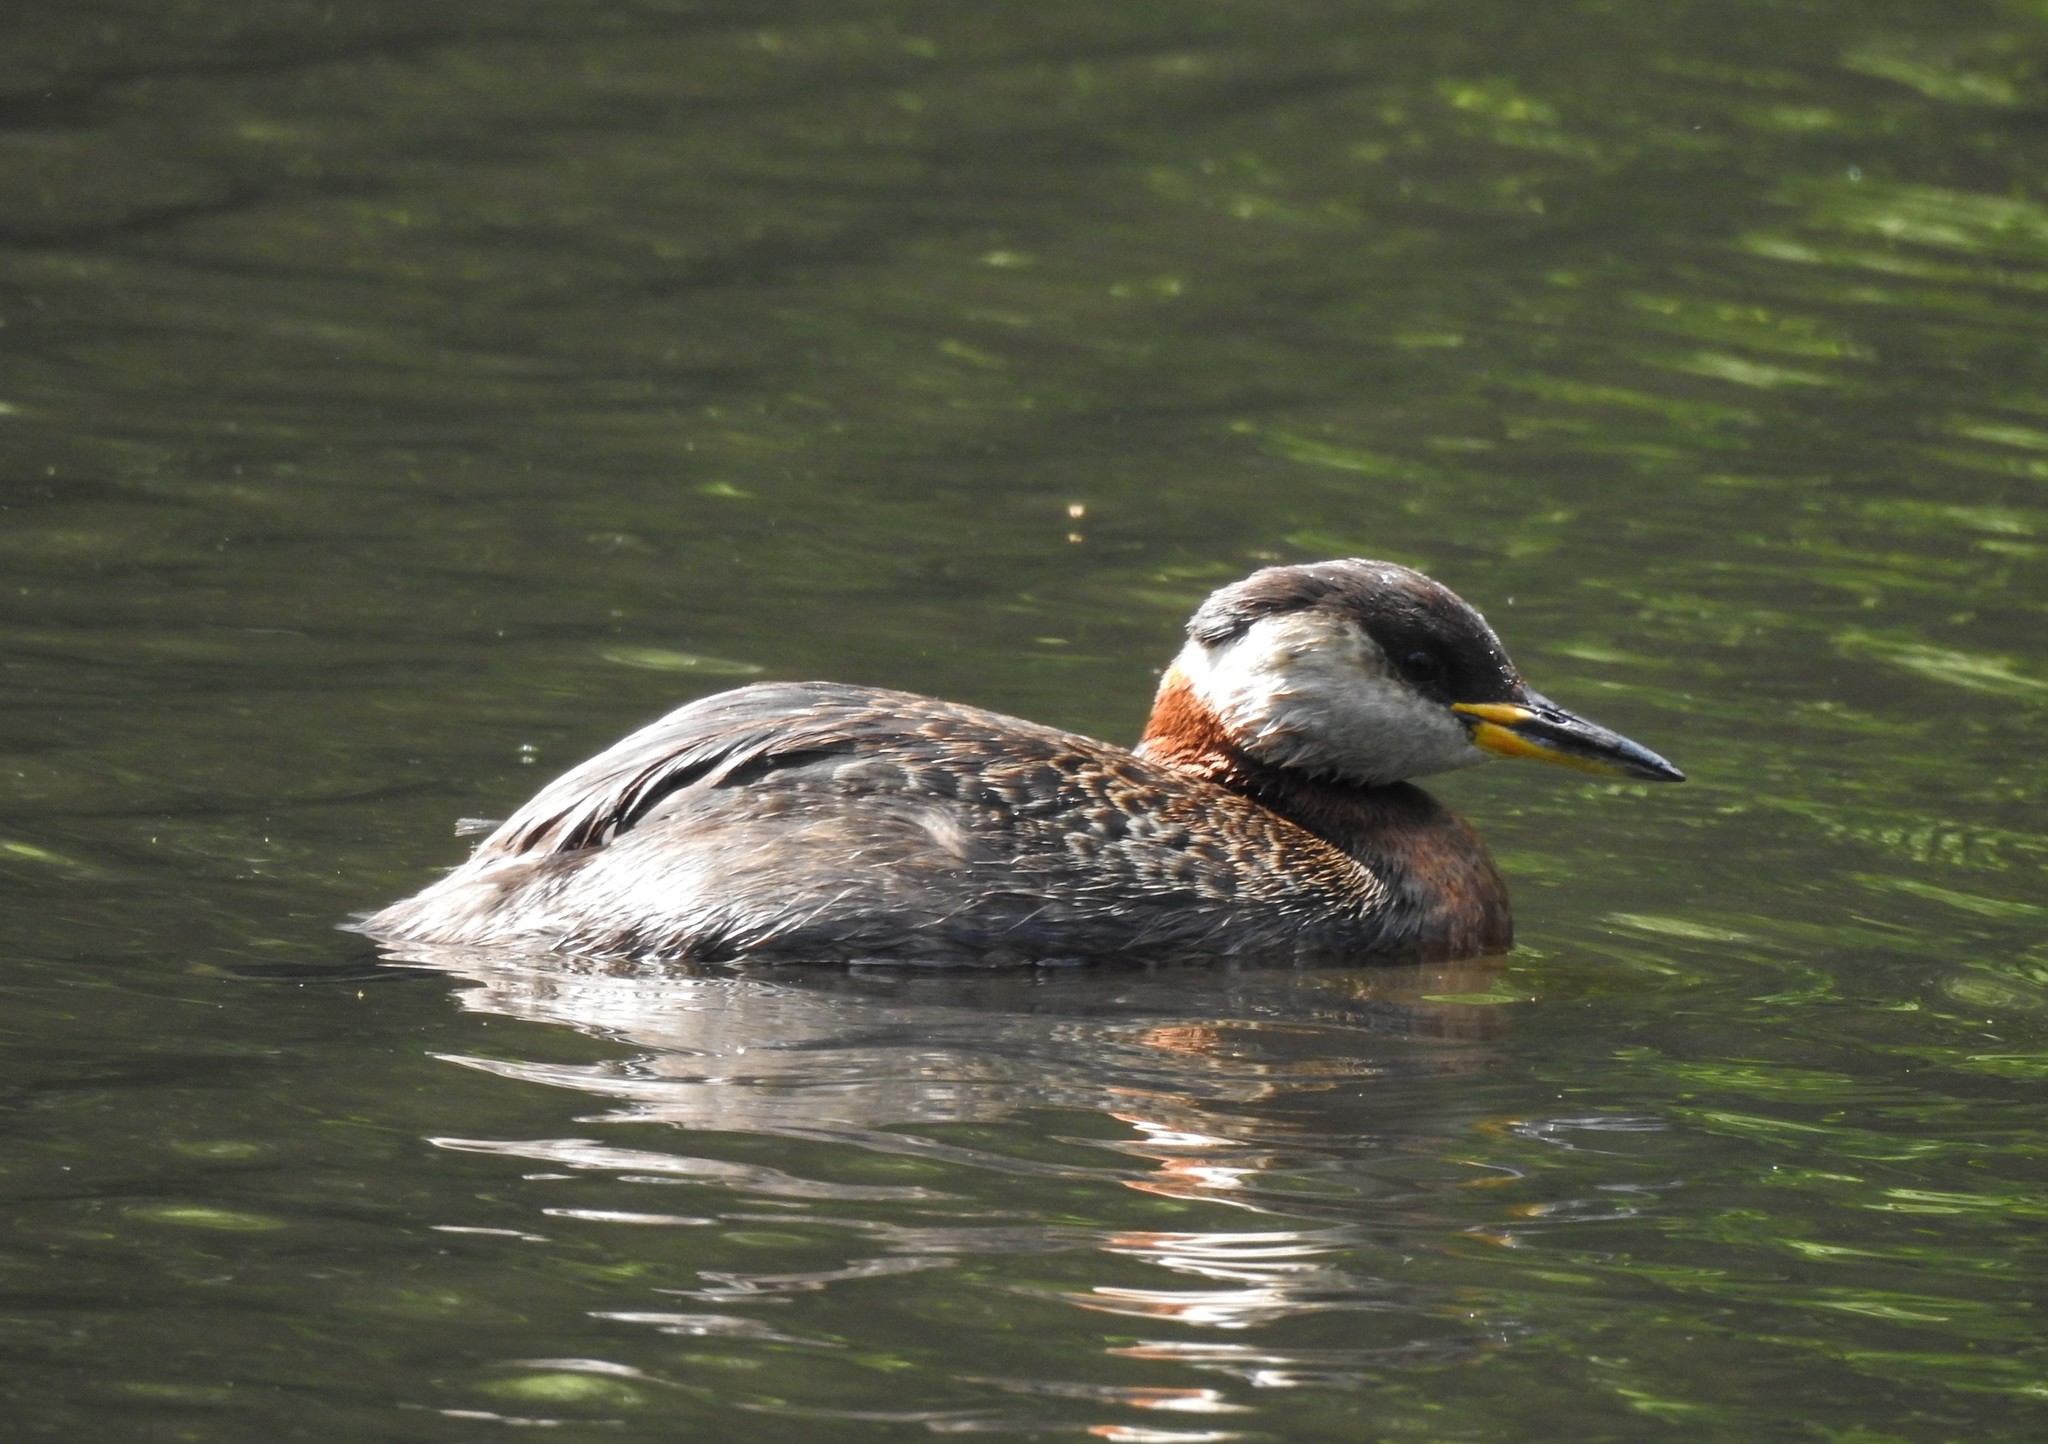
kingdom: Animalia
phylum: Chordata
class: Aves
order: Podicipediformes
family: Podicipedidae
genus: Podiceps
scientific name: Podiceps grisegena
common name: Red-necked grebe
